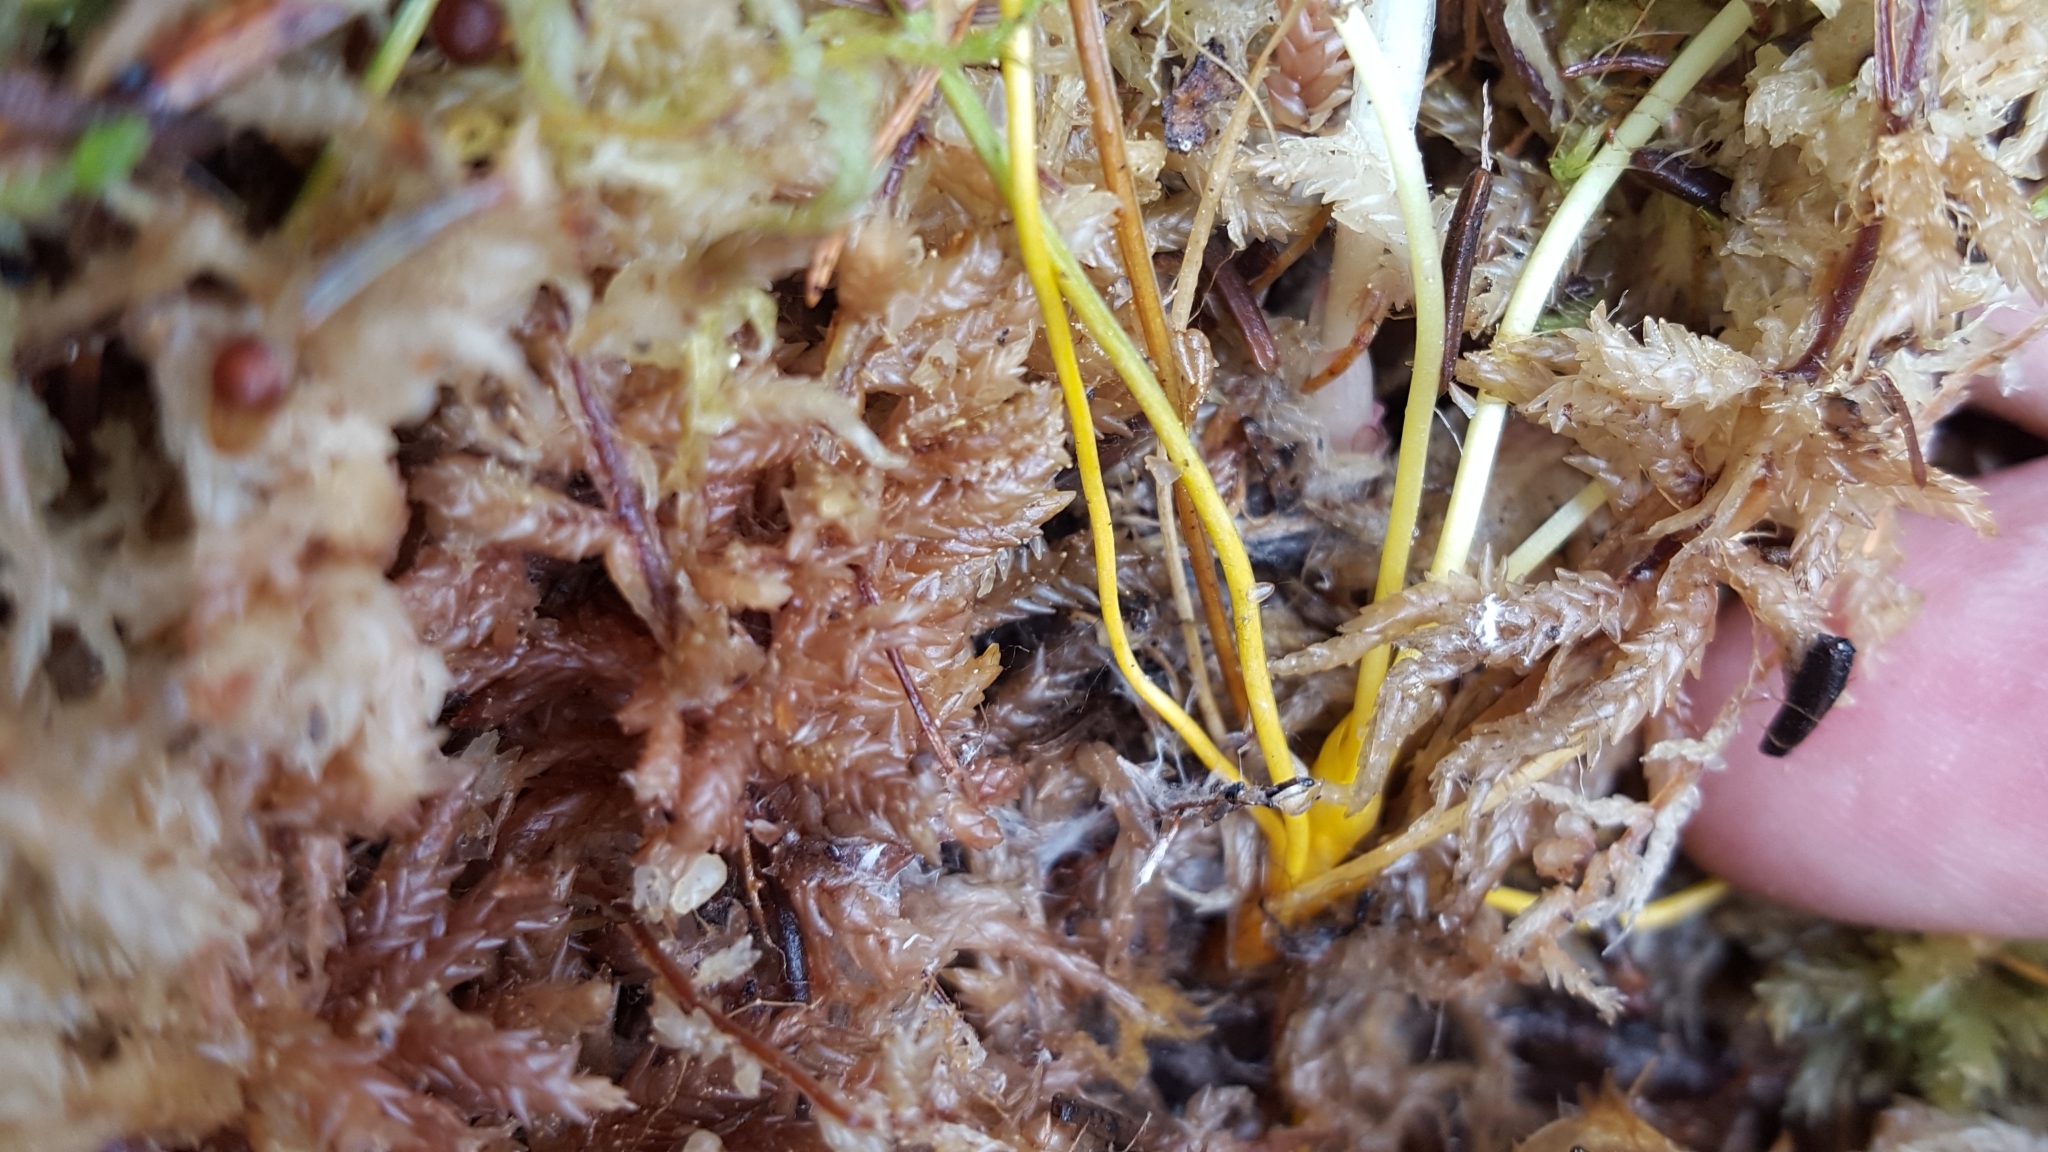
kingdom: Plantae
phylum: Tracheophyta
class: Magnoliopsida
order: Ranunculales
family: Ranunculaceae
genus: Coptis
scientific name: Coptis trifolia
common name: Canker-root
